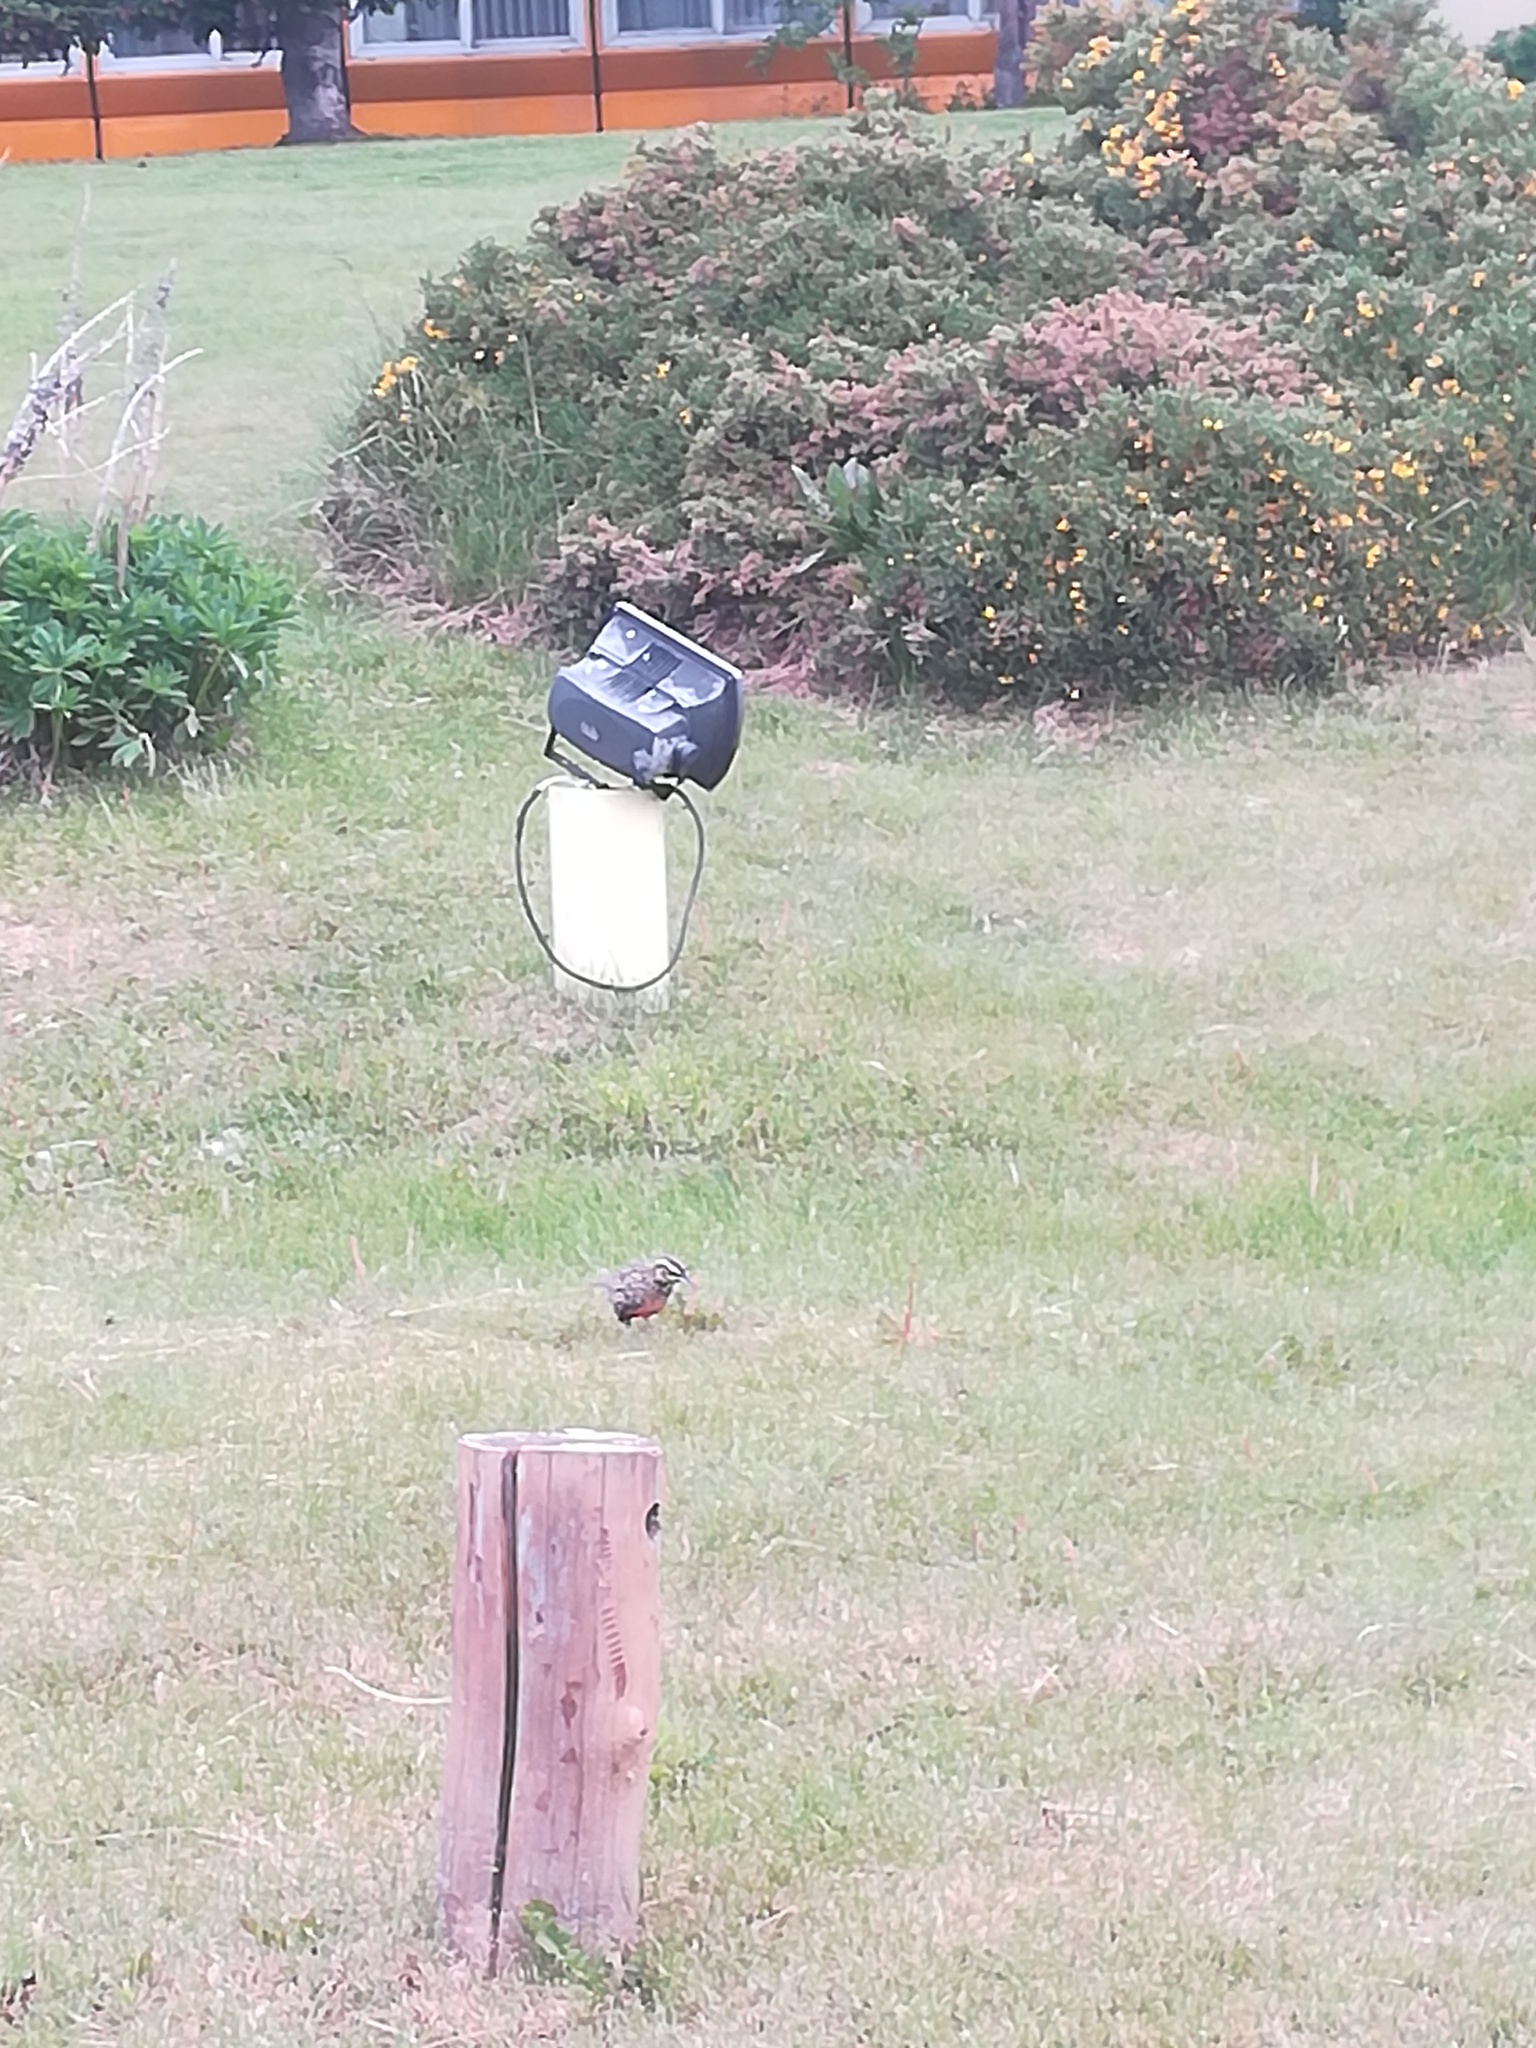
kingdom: Animalia
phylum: Chordata
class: Aves
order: Passeriformes
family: Icteridae
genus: Sturnella
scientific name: Sturnella loyca
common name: Long-tailed meadowlark
